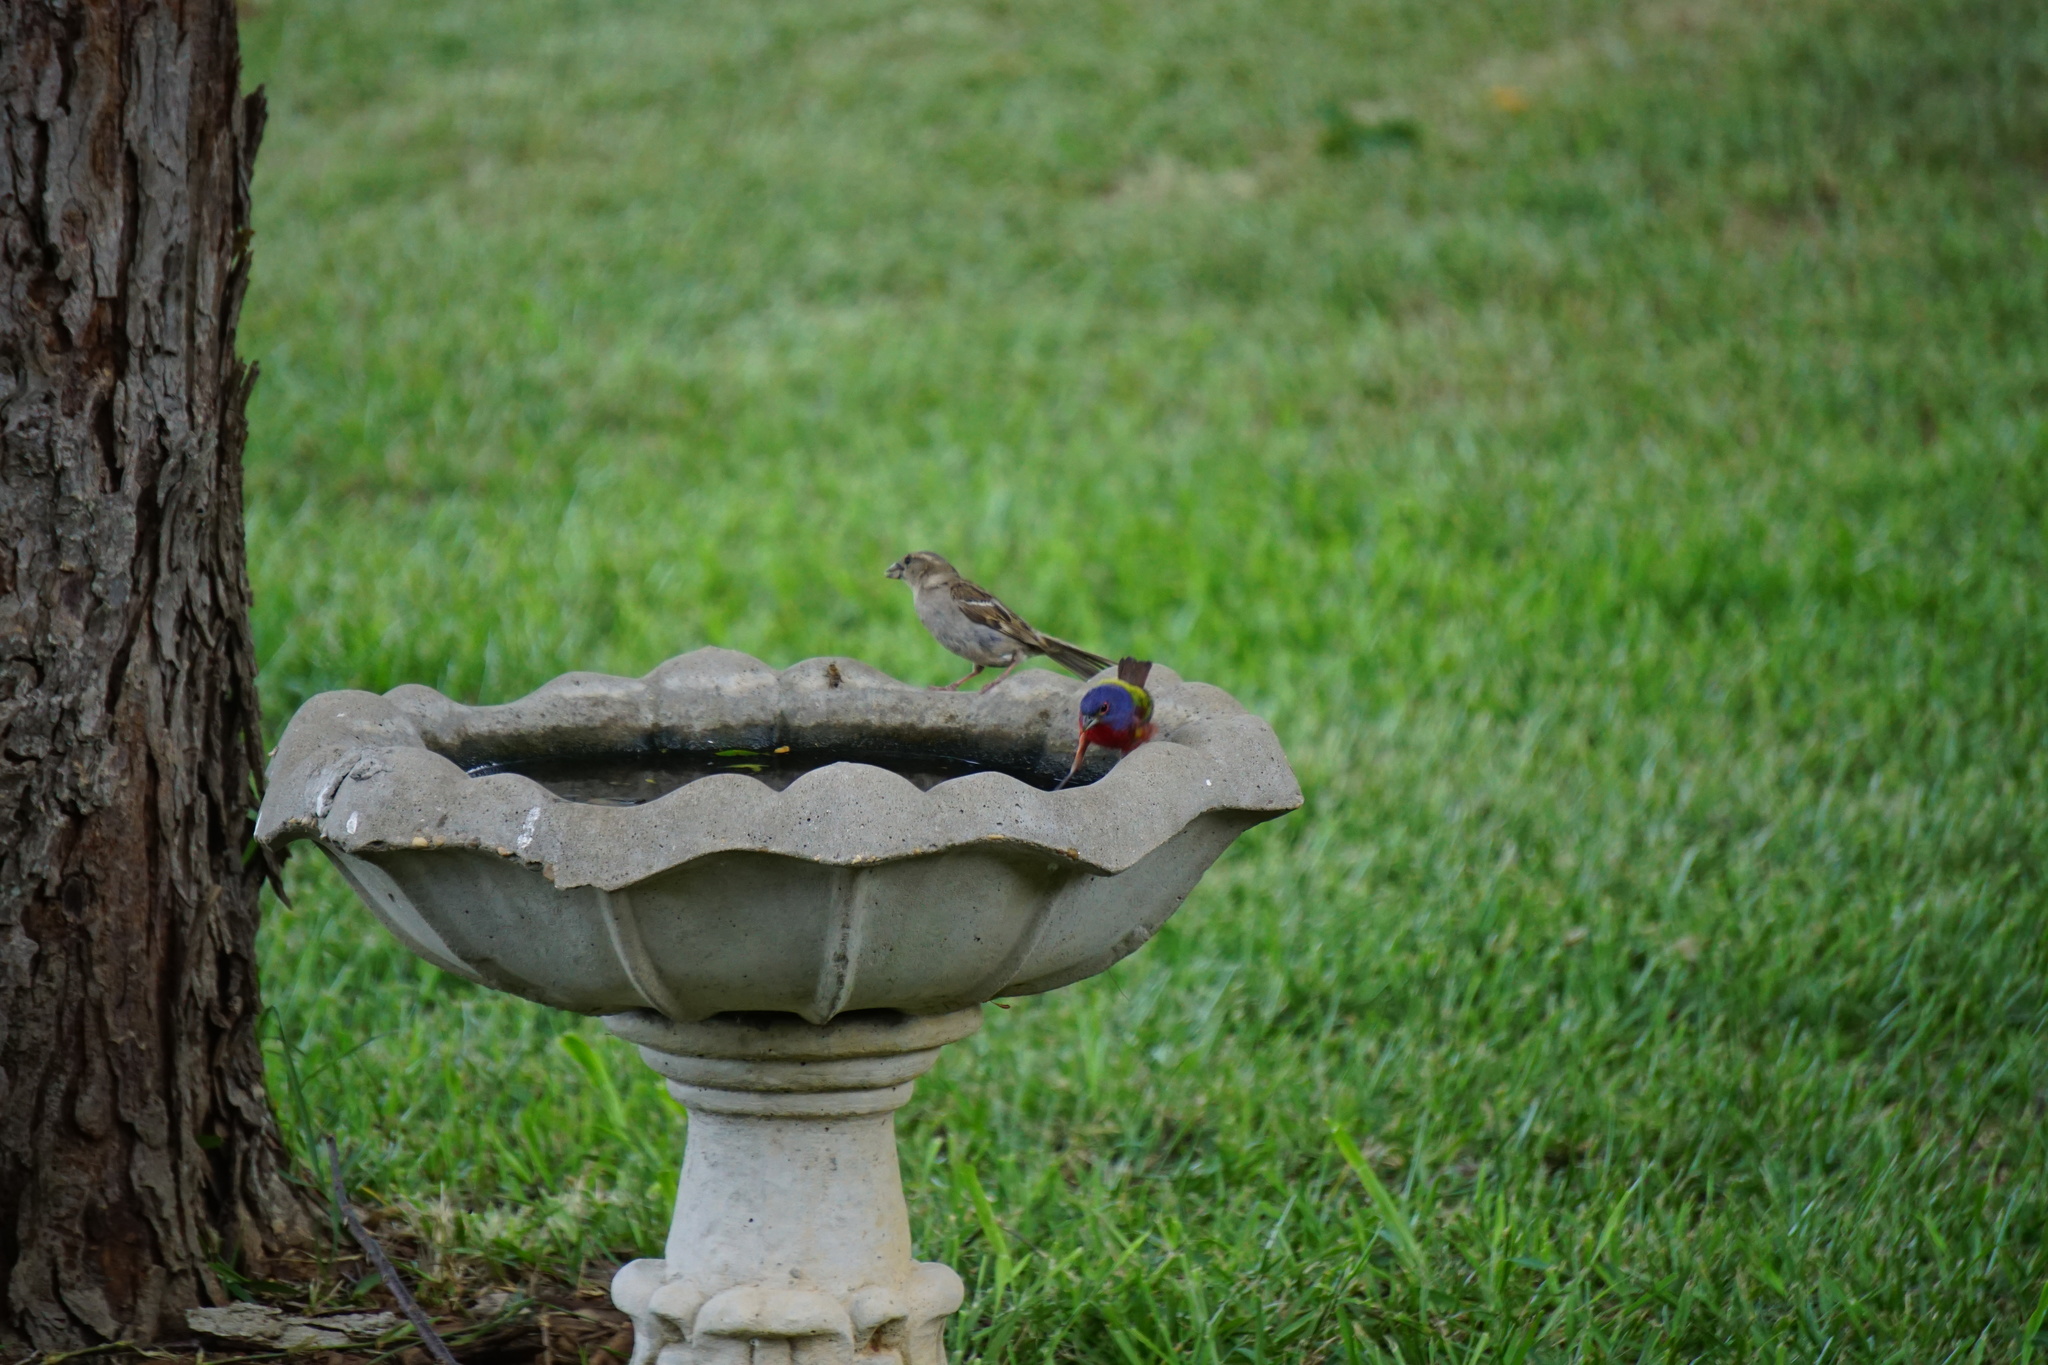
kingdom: Animalia
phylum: Chordata
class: Aves
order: Passeriformes
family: Cardinalidae
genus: Passerina
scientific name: Passerina ciris
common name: Painted bunting
